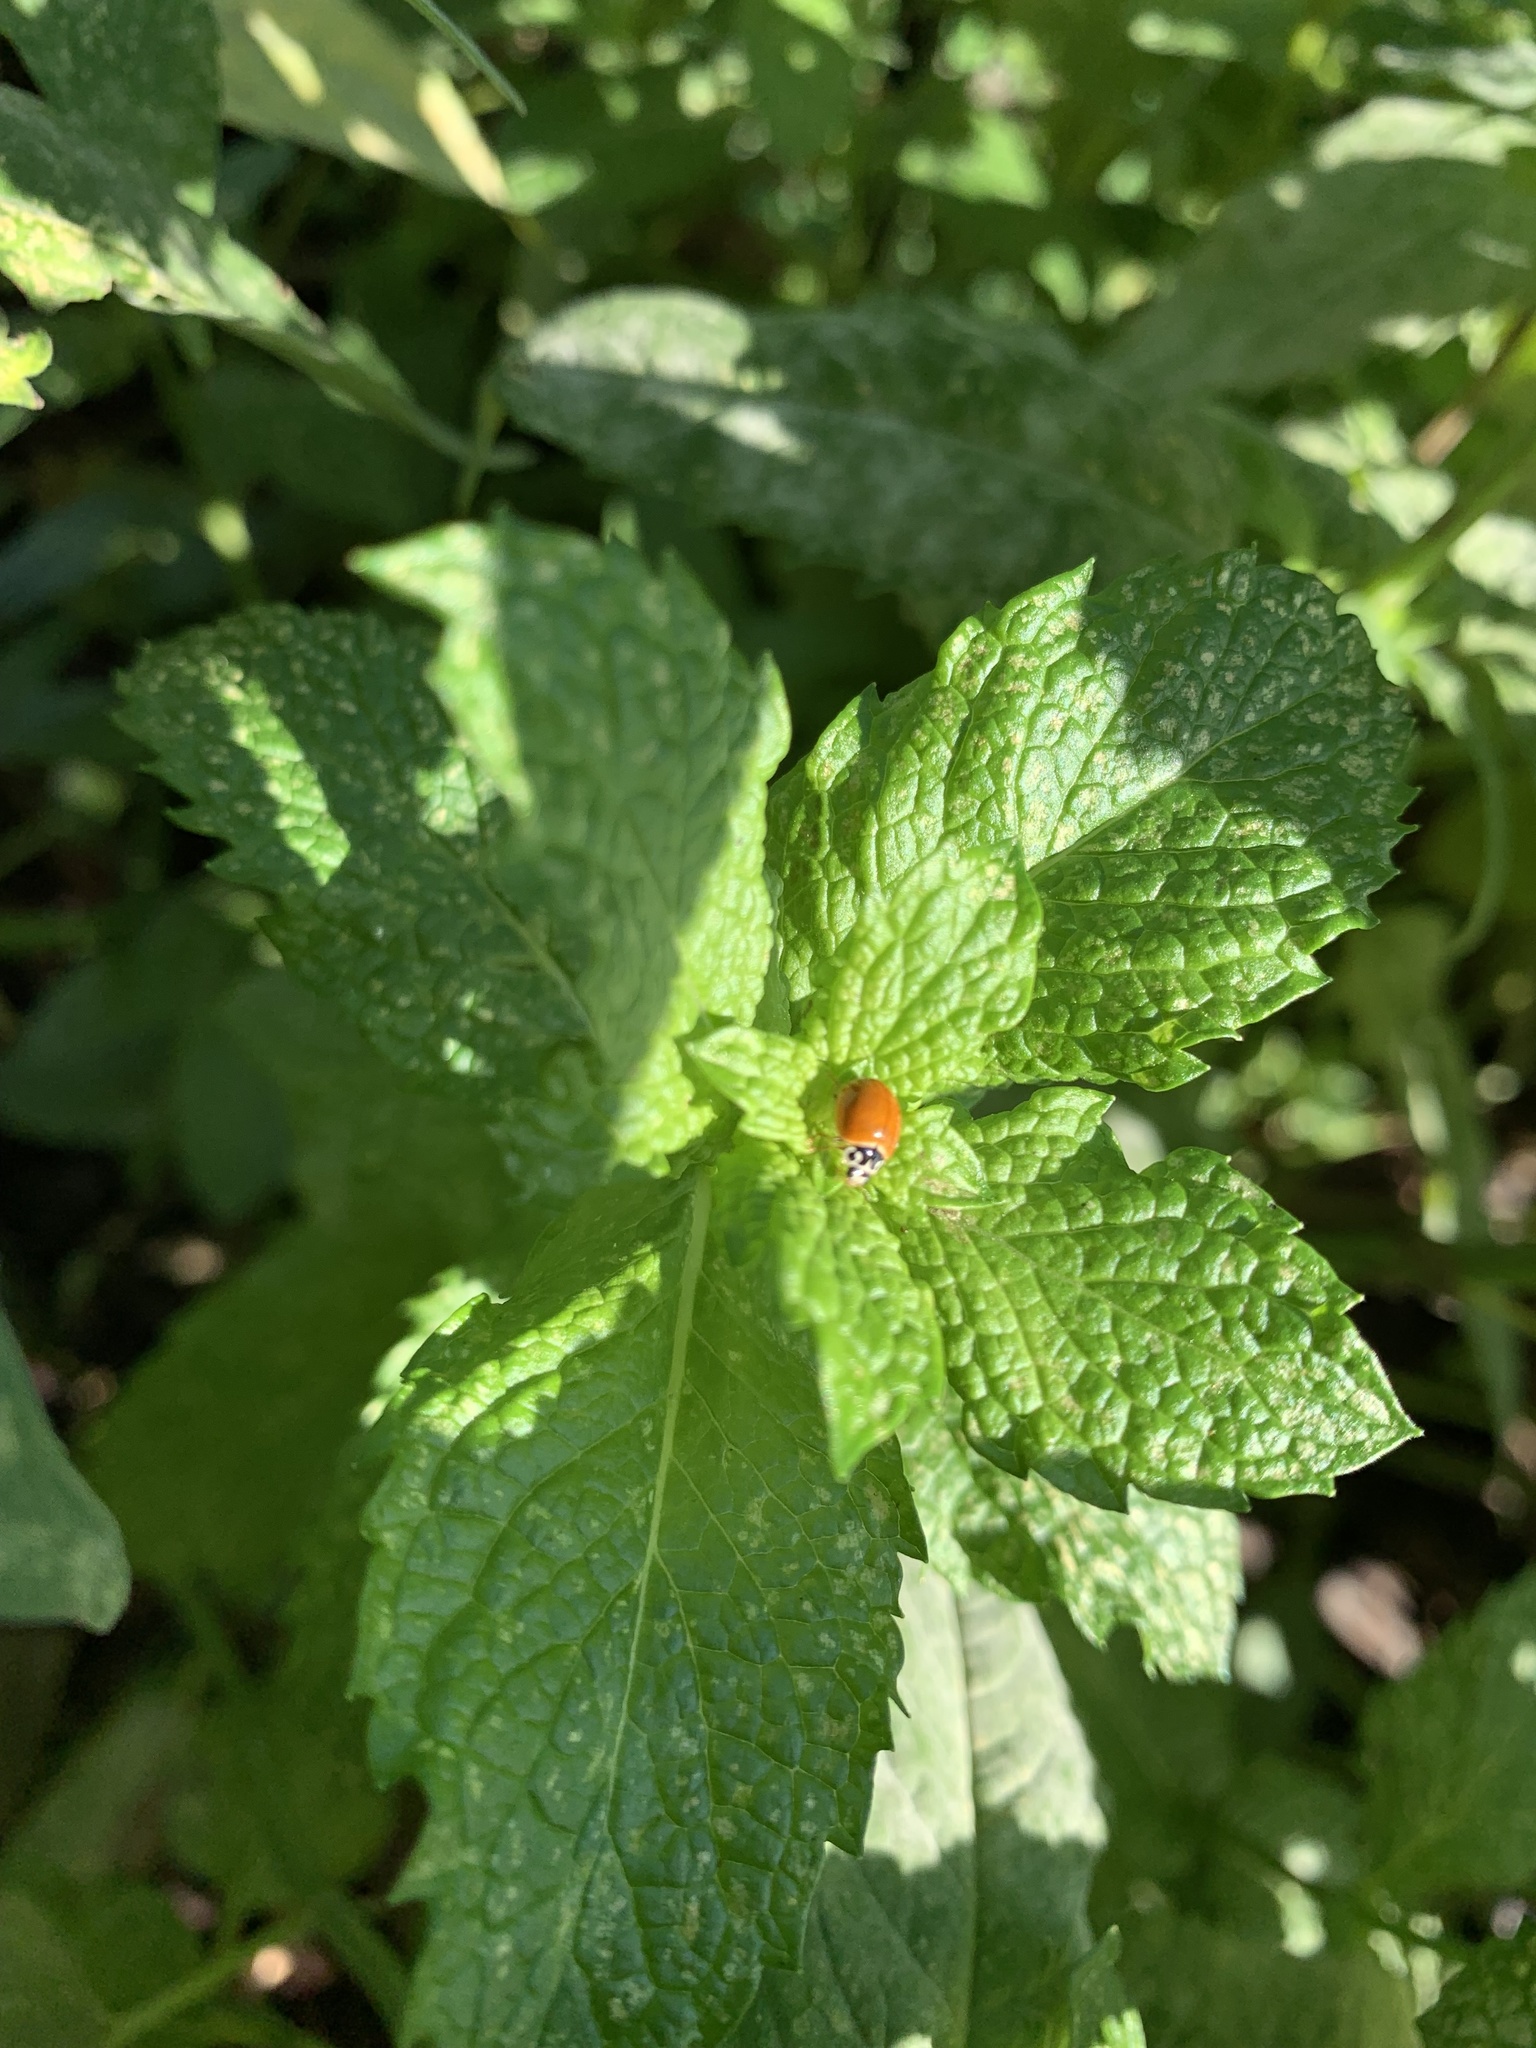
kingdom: Animalia
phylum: Arthropoda
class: Insecta
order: Coleoptera
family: Coccinellidae
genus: Cycloneda
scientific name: Cycloneda munda
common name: Polished lady beetle
